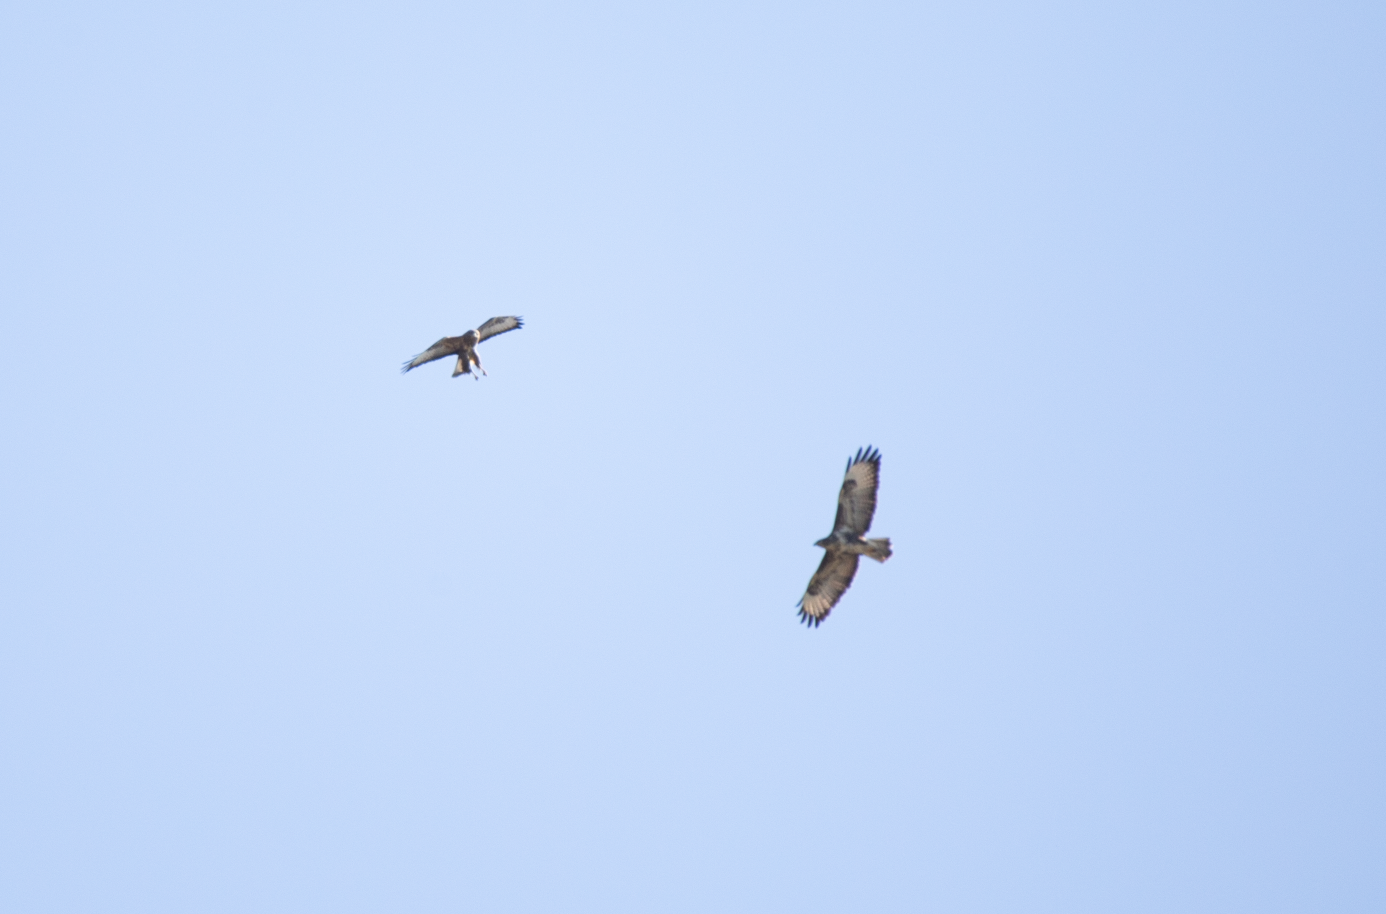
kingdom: Animalia
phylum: Chordata
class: Aves
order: Accipitriformes
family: Accipitridae
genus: Buteo
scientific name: Buteo buteo
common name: Common buzzard
